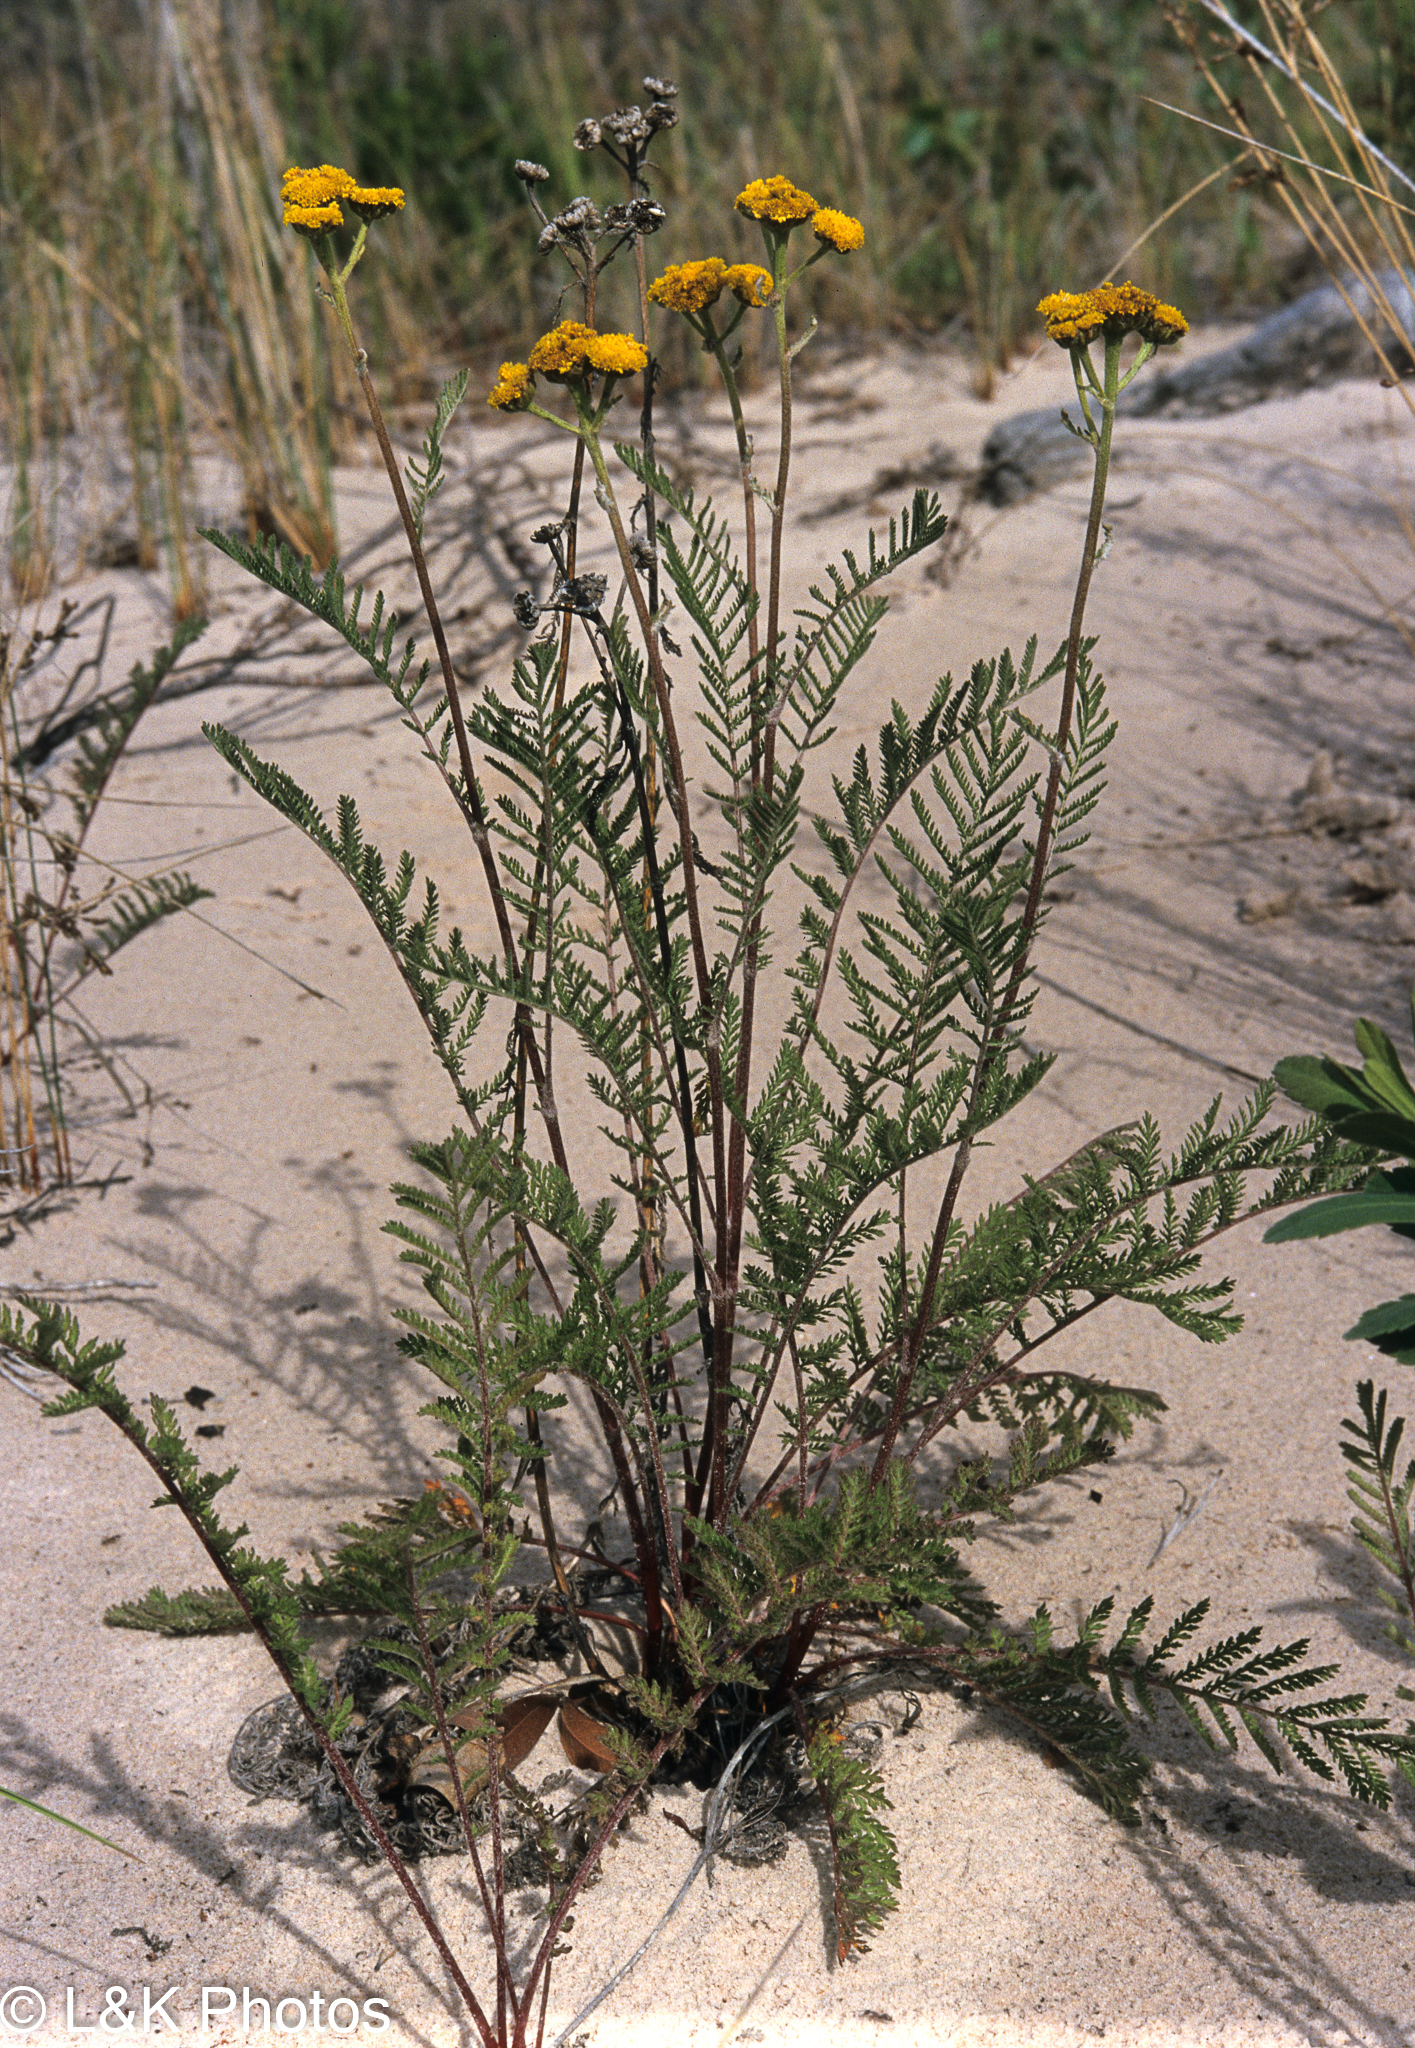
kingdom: Plantae
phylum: Tracheophyta
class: Magnoliopsida
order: Asterales
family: Asteraceae
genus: Tanacetum
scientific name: Tanacetum bipinnatum
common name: Dwarf tansy
